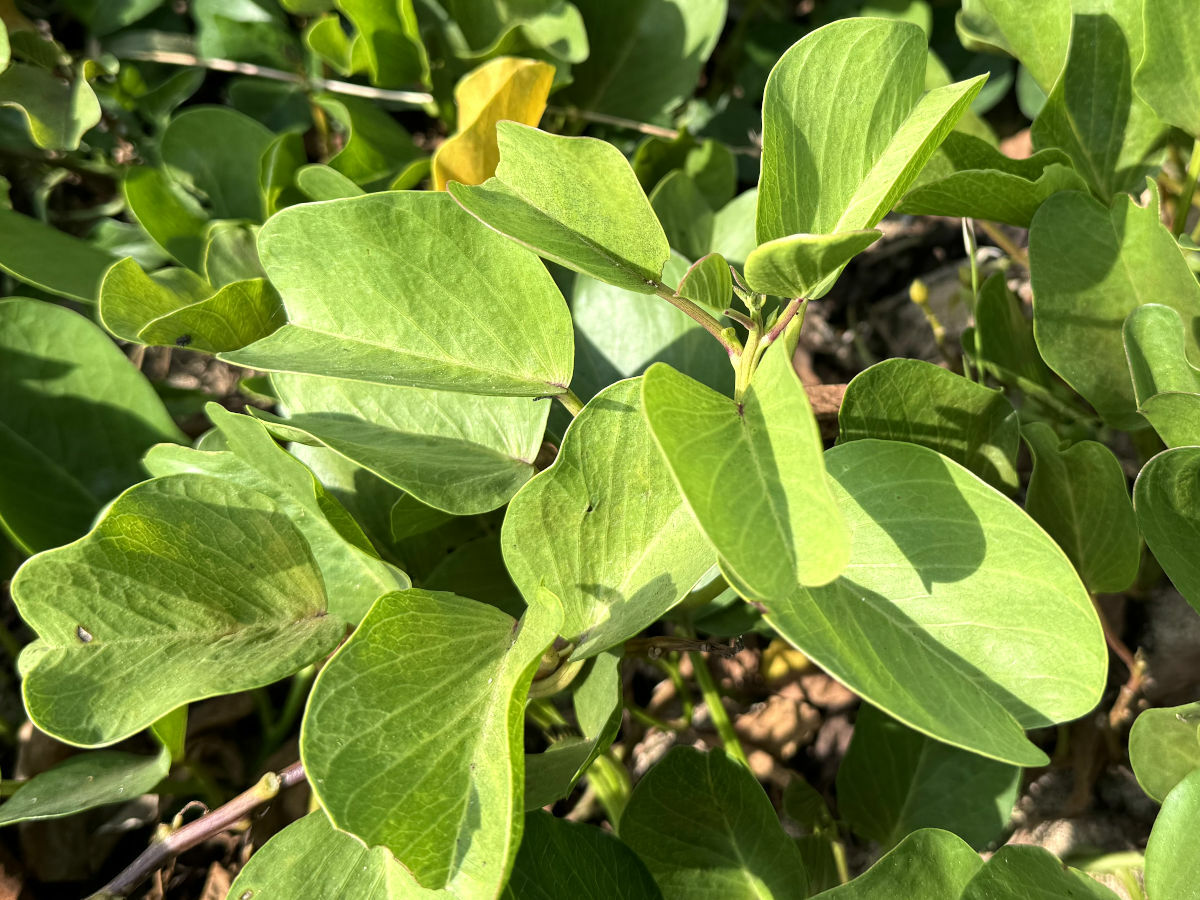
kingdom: Plantae
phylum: Tracheophyta
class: Magnoliopsida
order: Solanales
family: Convolvulaceae
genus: Ipomoea
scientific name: Ipomoea pes-caprae
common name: Beach morning glory
